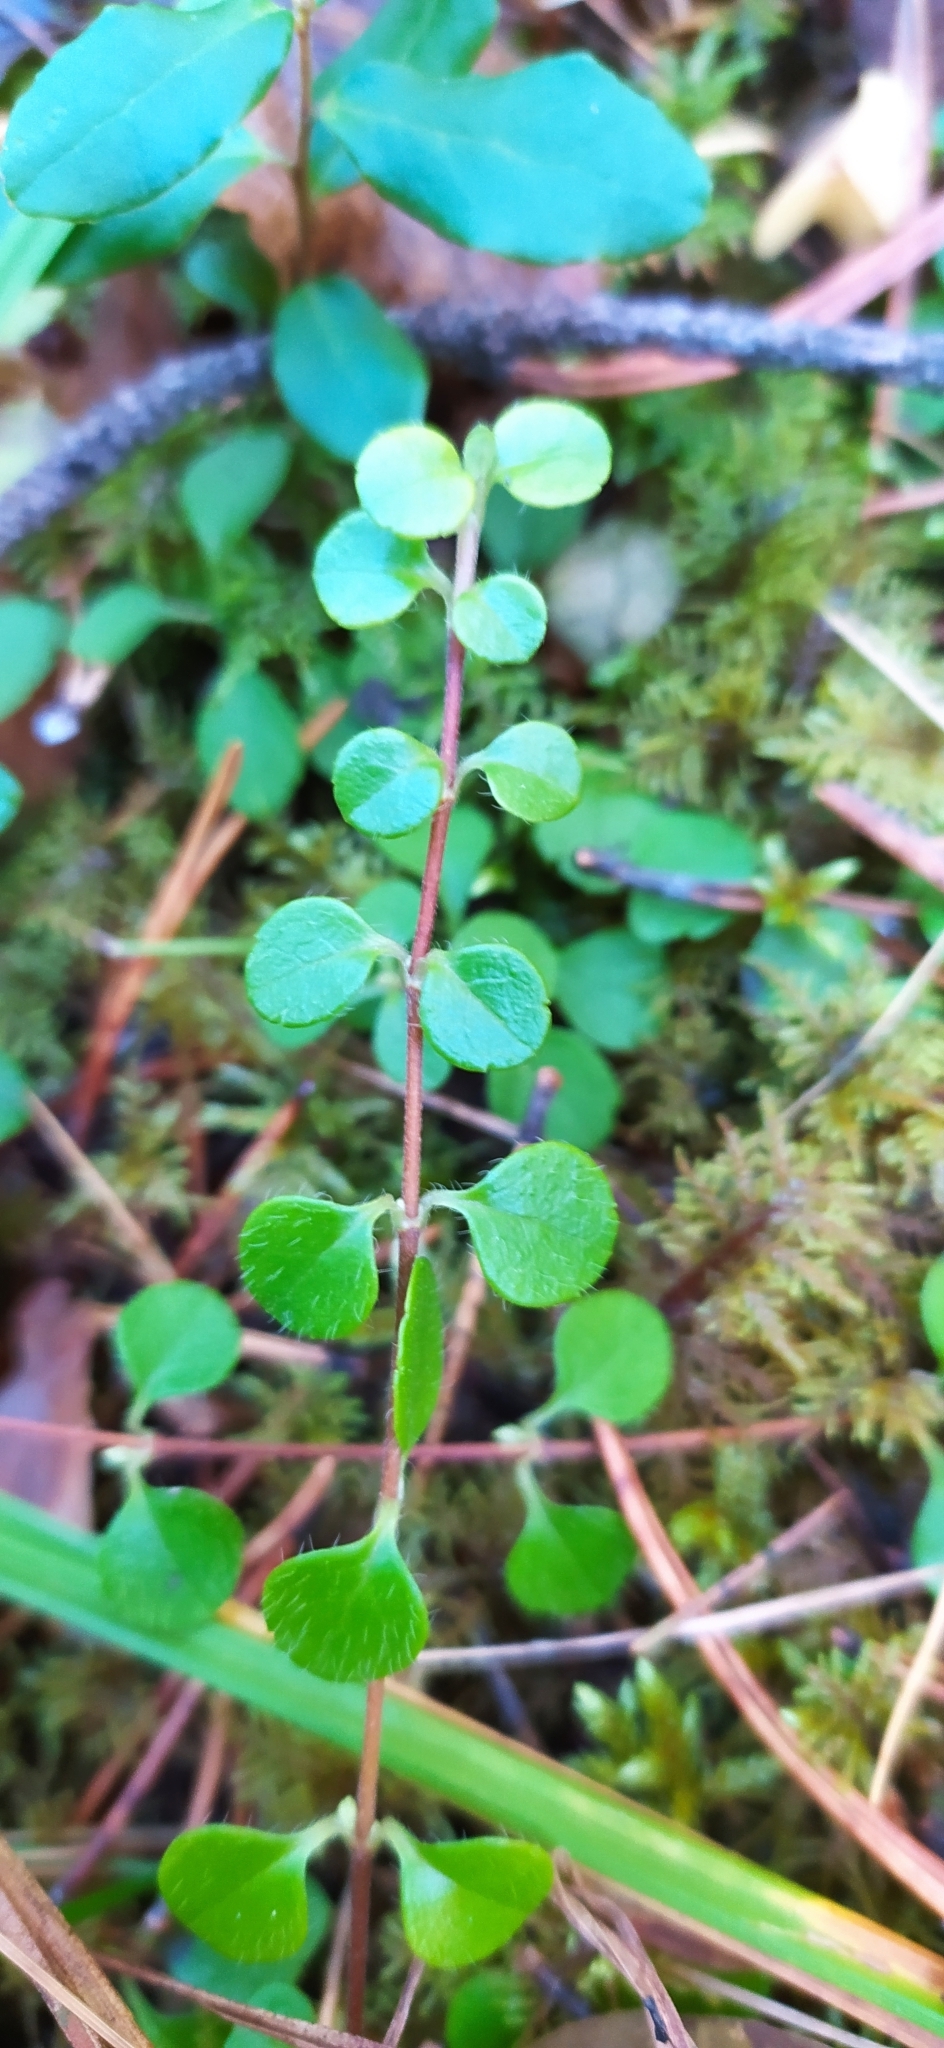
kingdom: Plantae
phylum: Tracheophyta
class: Magnoliopsida
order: Dipsacales
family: Caprifoliaceae
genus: Linnaea
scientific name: Linnaea borealis
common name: Twinflower
